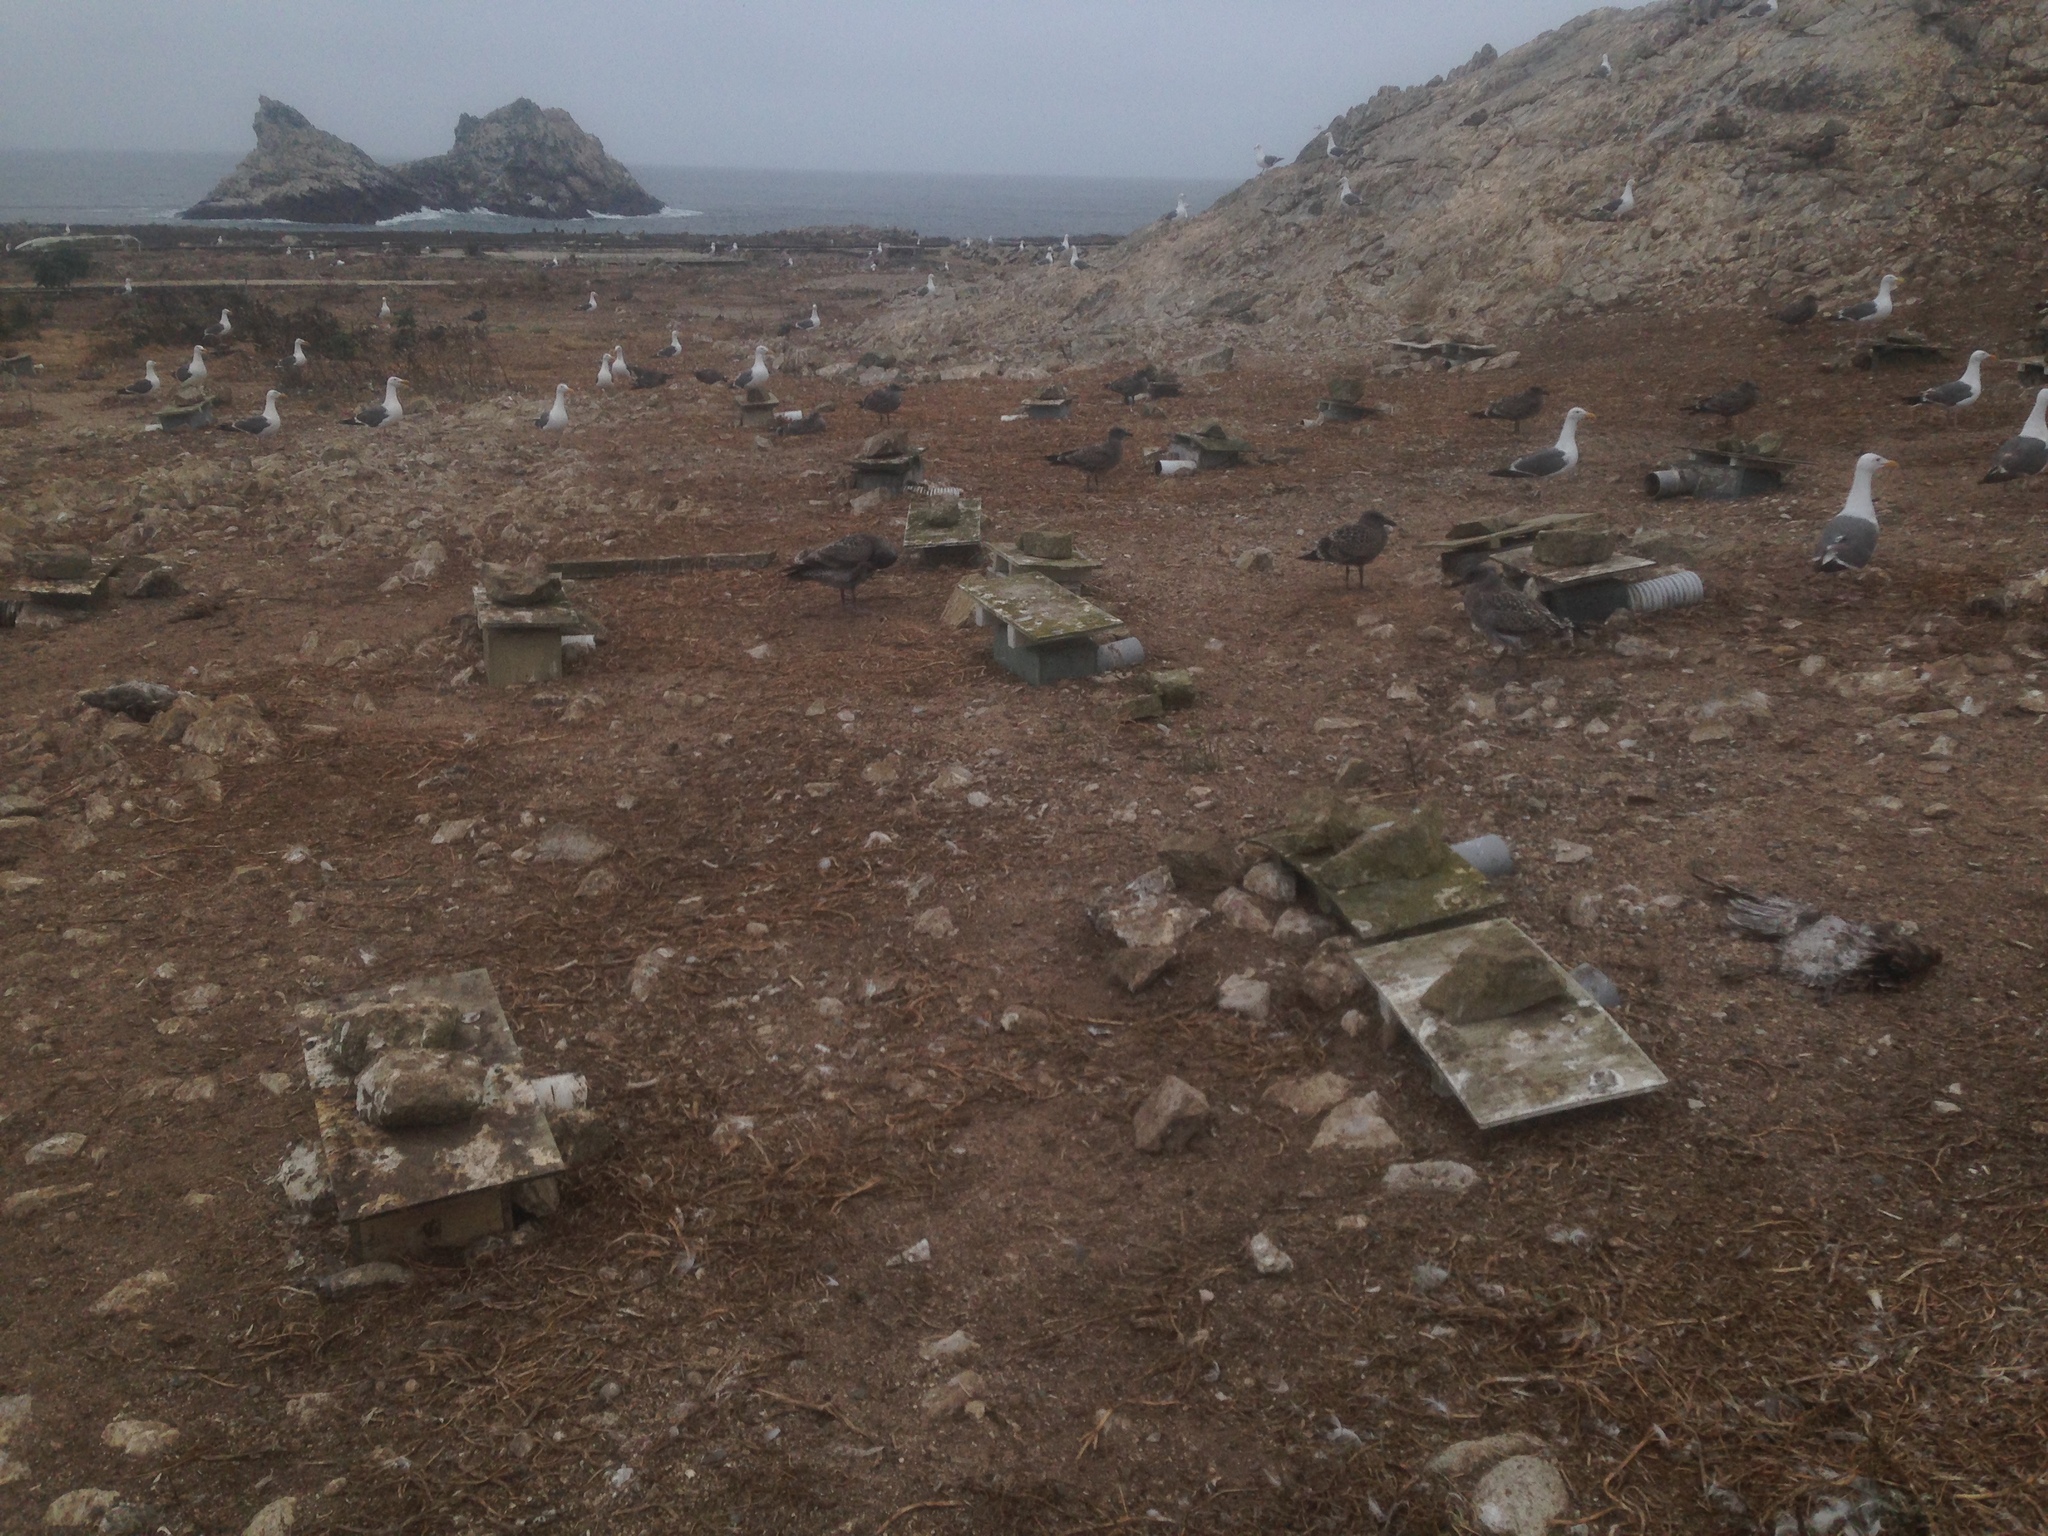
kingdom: Animalia
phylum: Chordata
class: Aves
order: Charadriiformes
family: Laridae
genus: Larus
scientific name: Larus occidentalis
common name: Western gull
